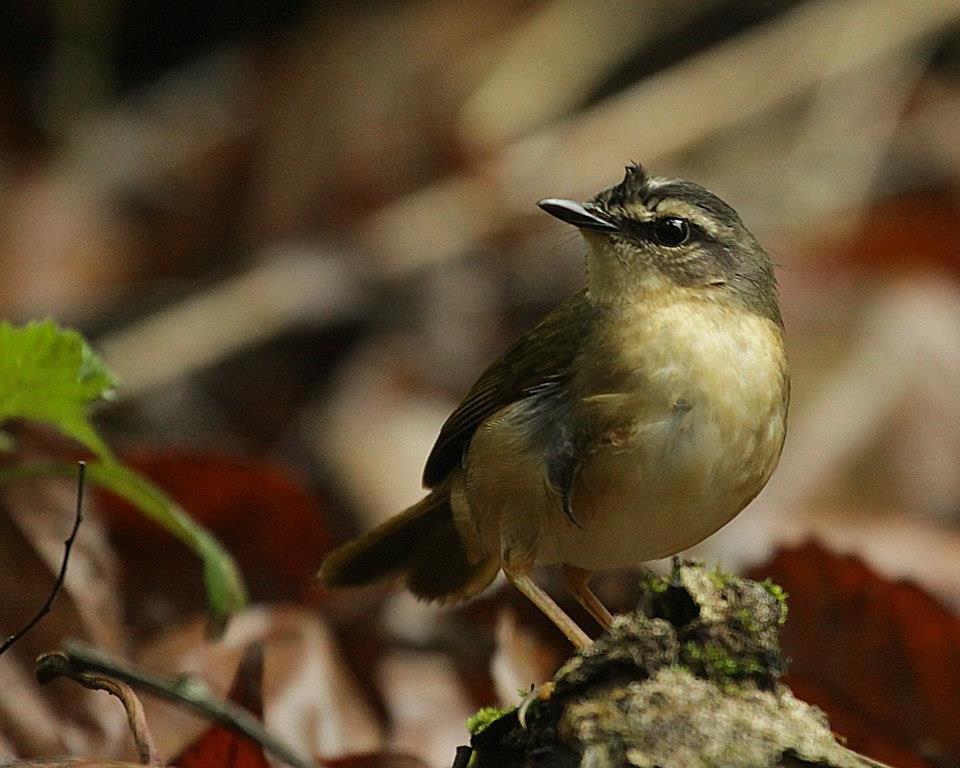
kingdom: Animalia
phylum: Chordata
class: Aves
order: Passeriformes
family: Parulidae
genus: Myiothlypis
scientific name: Myiothlypis rivularis
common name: Riverbank warbler
